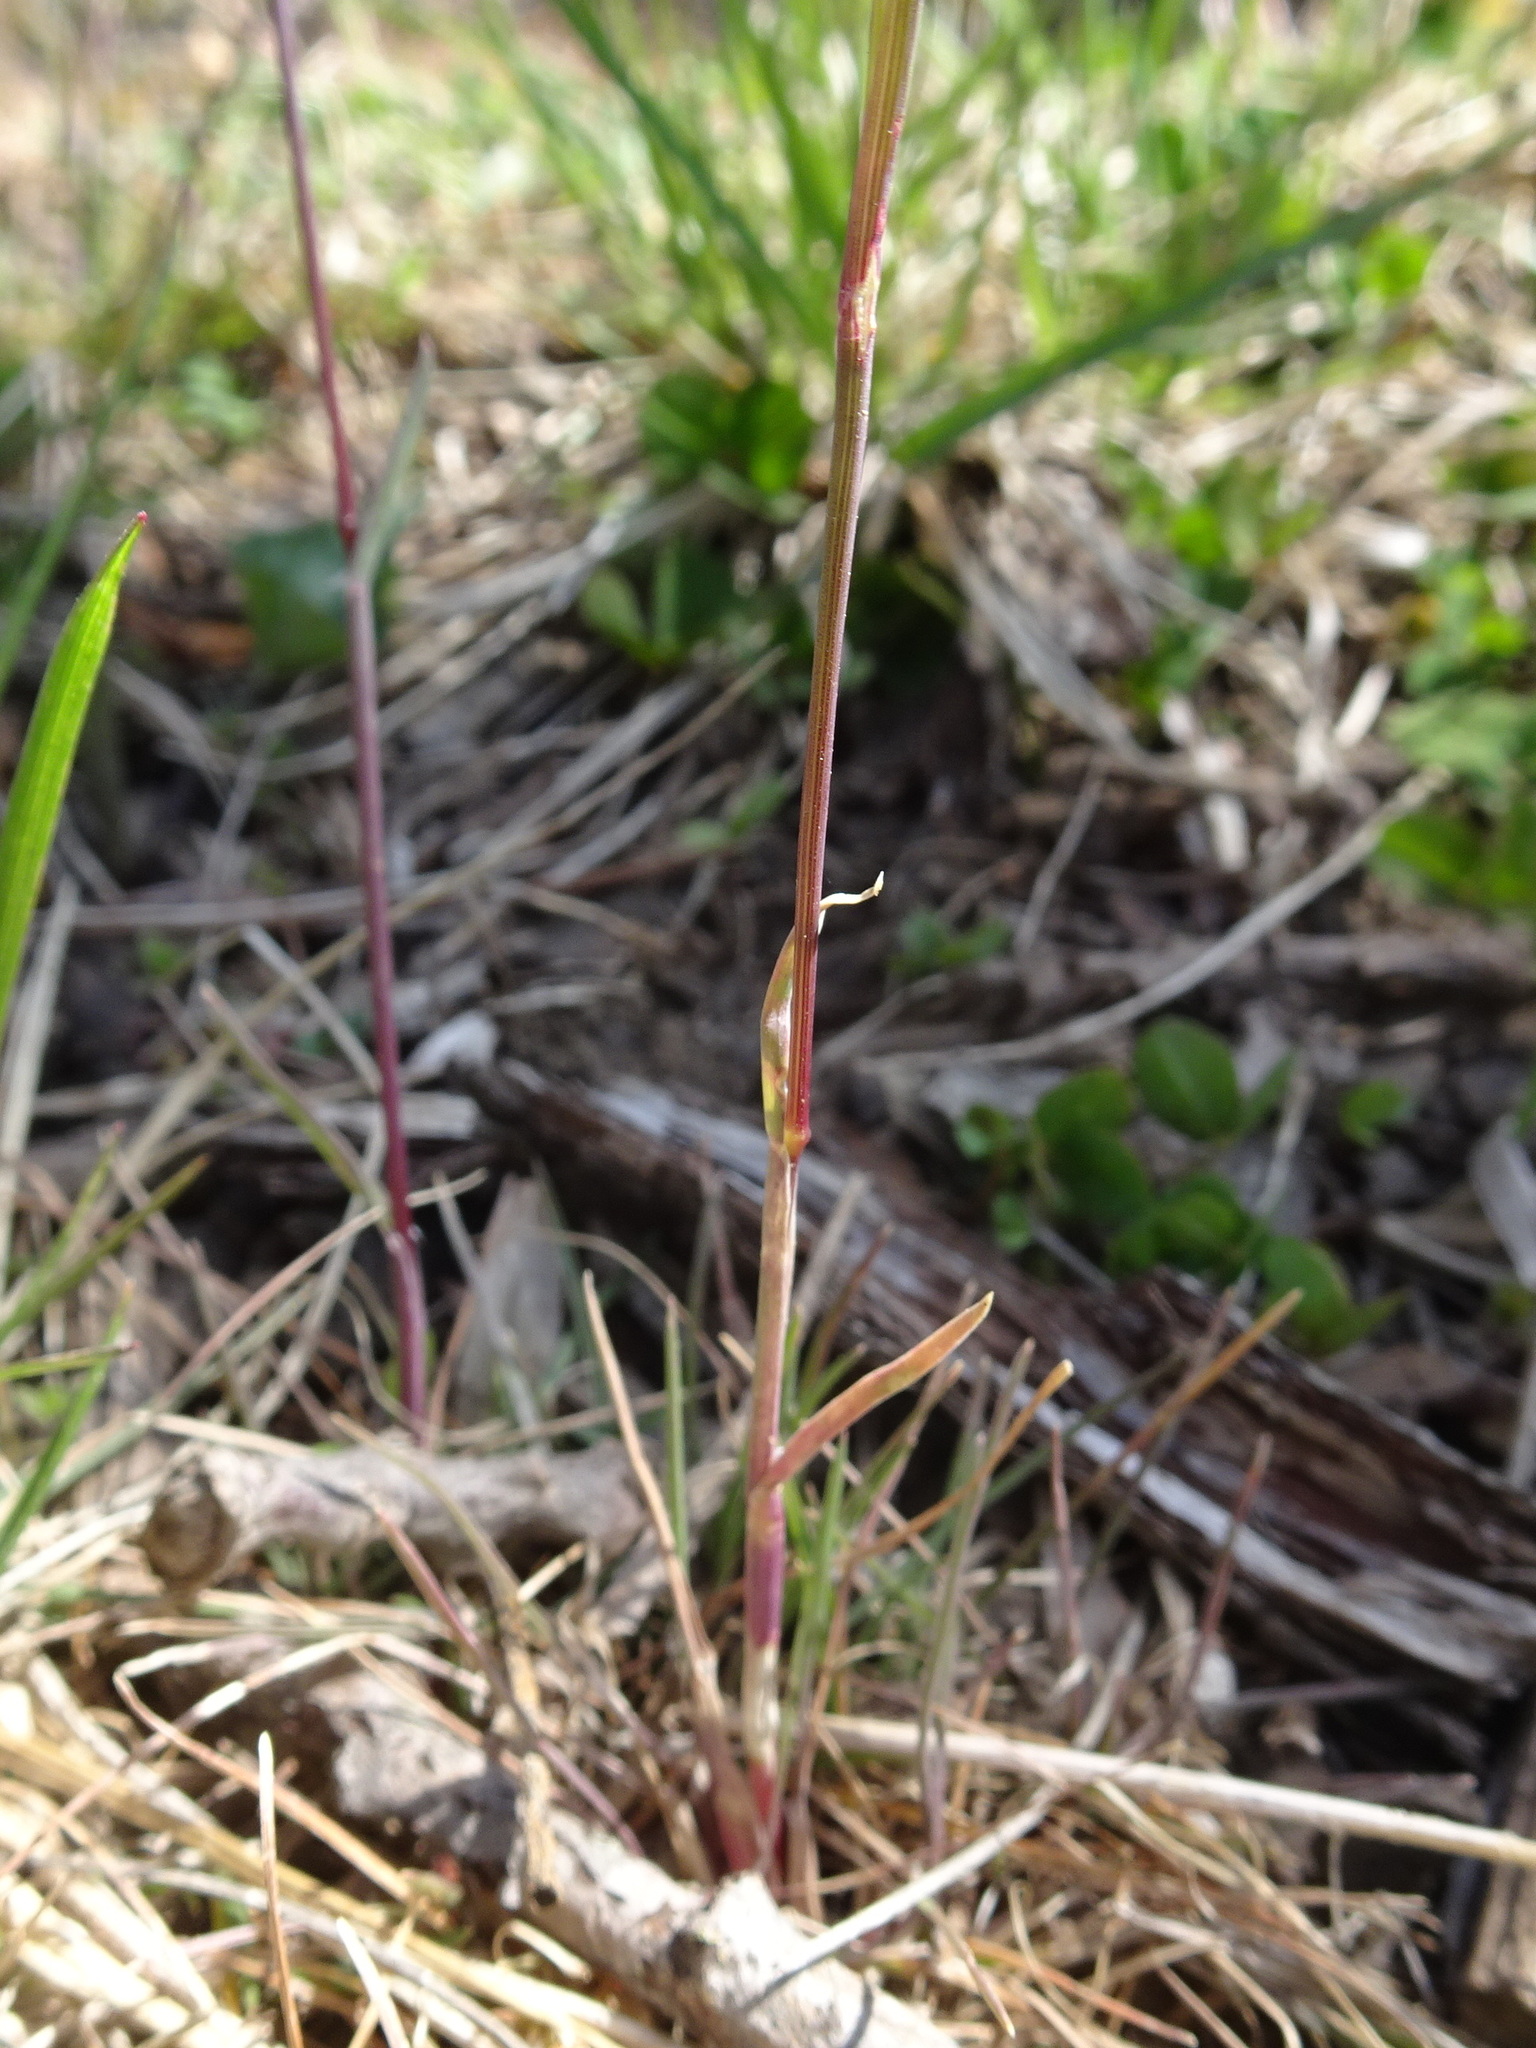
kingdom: Plantae
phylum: Tracheophyta
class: Liliopsida
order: Poales
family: Poaceae
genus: Poa
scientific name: Poa bulbosa
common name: Bulbous bluegrass
